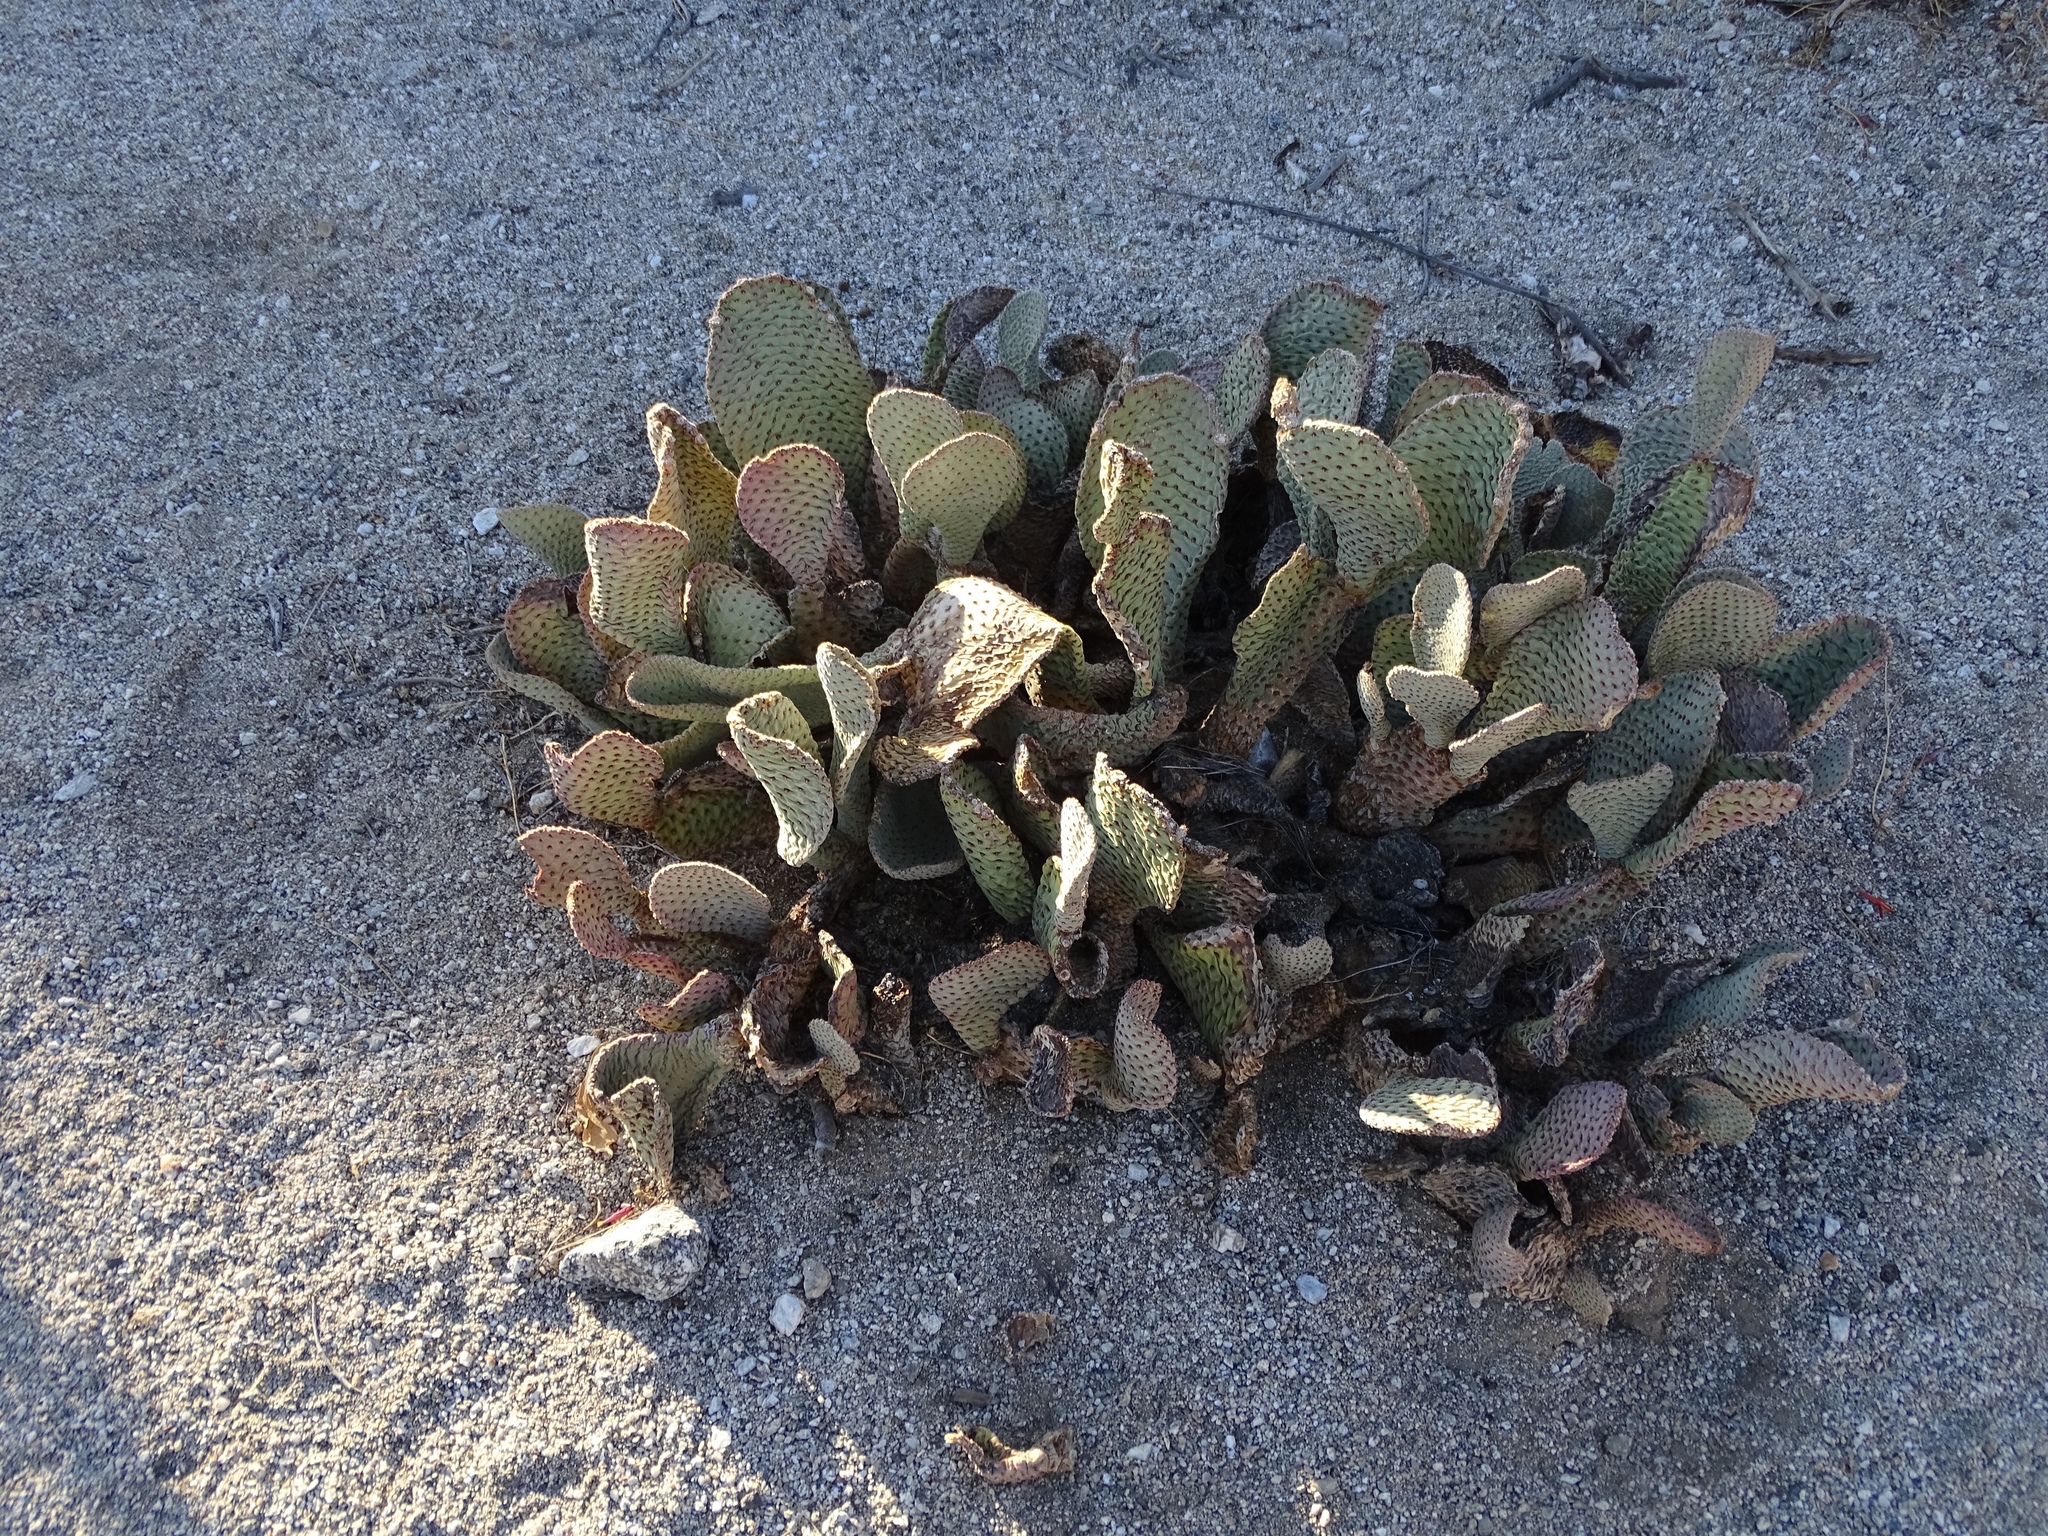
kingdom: Plantae
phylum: Tracheophyta
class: Magnoliopsida
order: Caryophyllales
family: Cactaceae
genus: Opuntia
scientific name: Opuntia basilaris
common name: Beavertail prickly-pear
